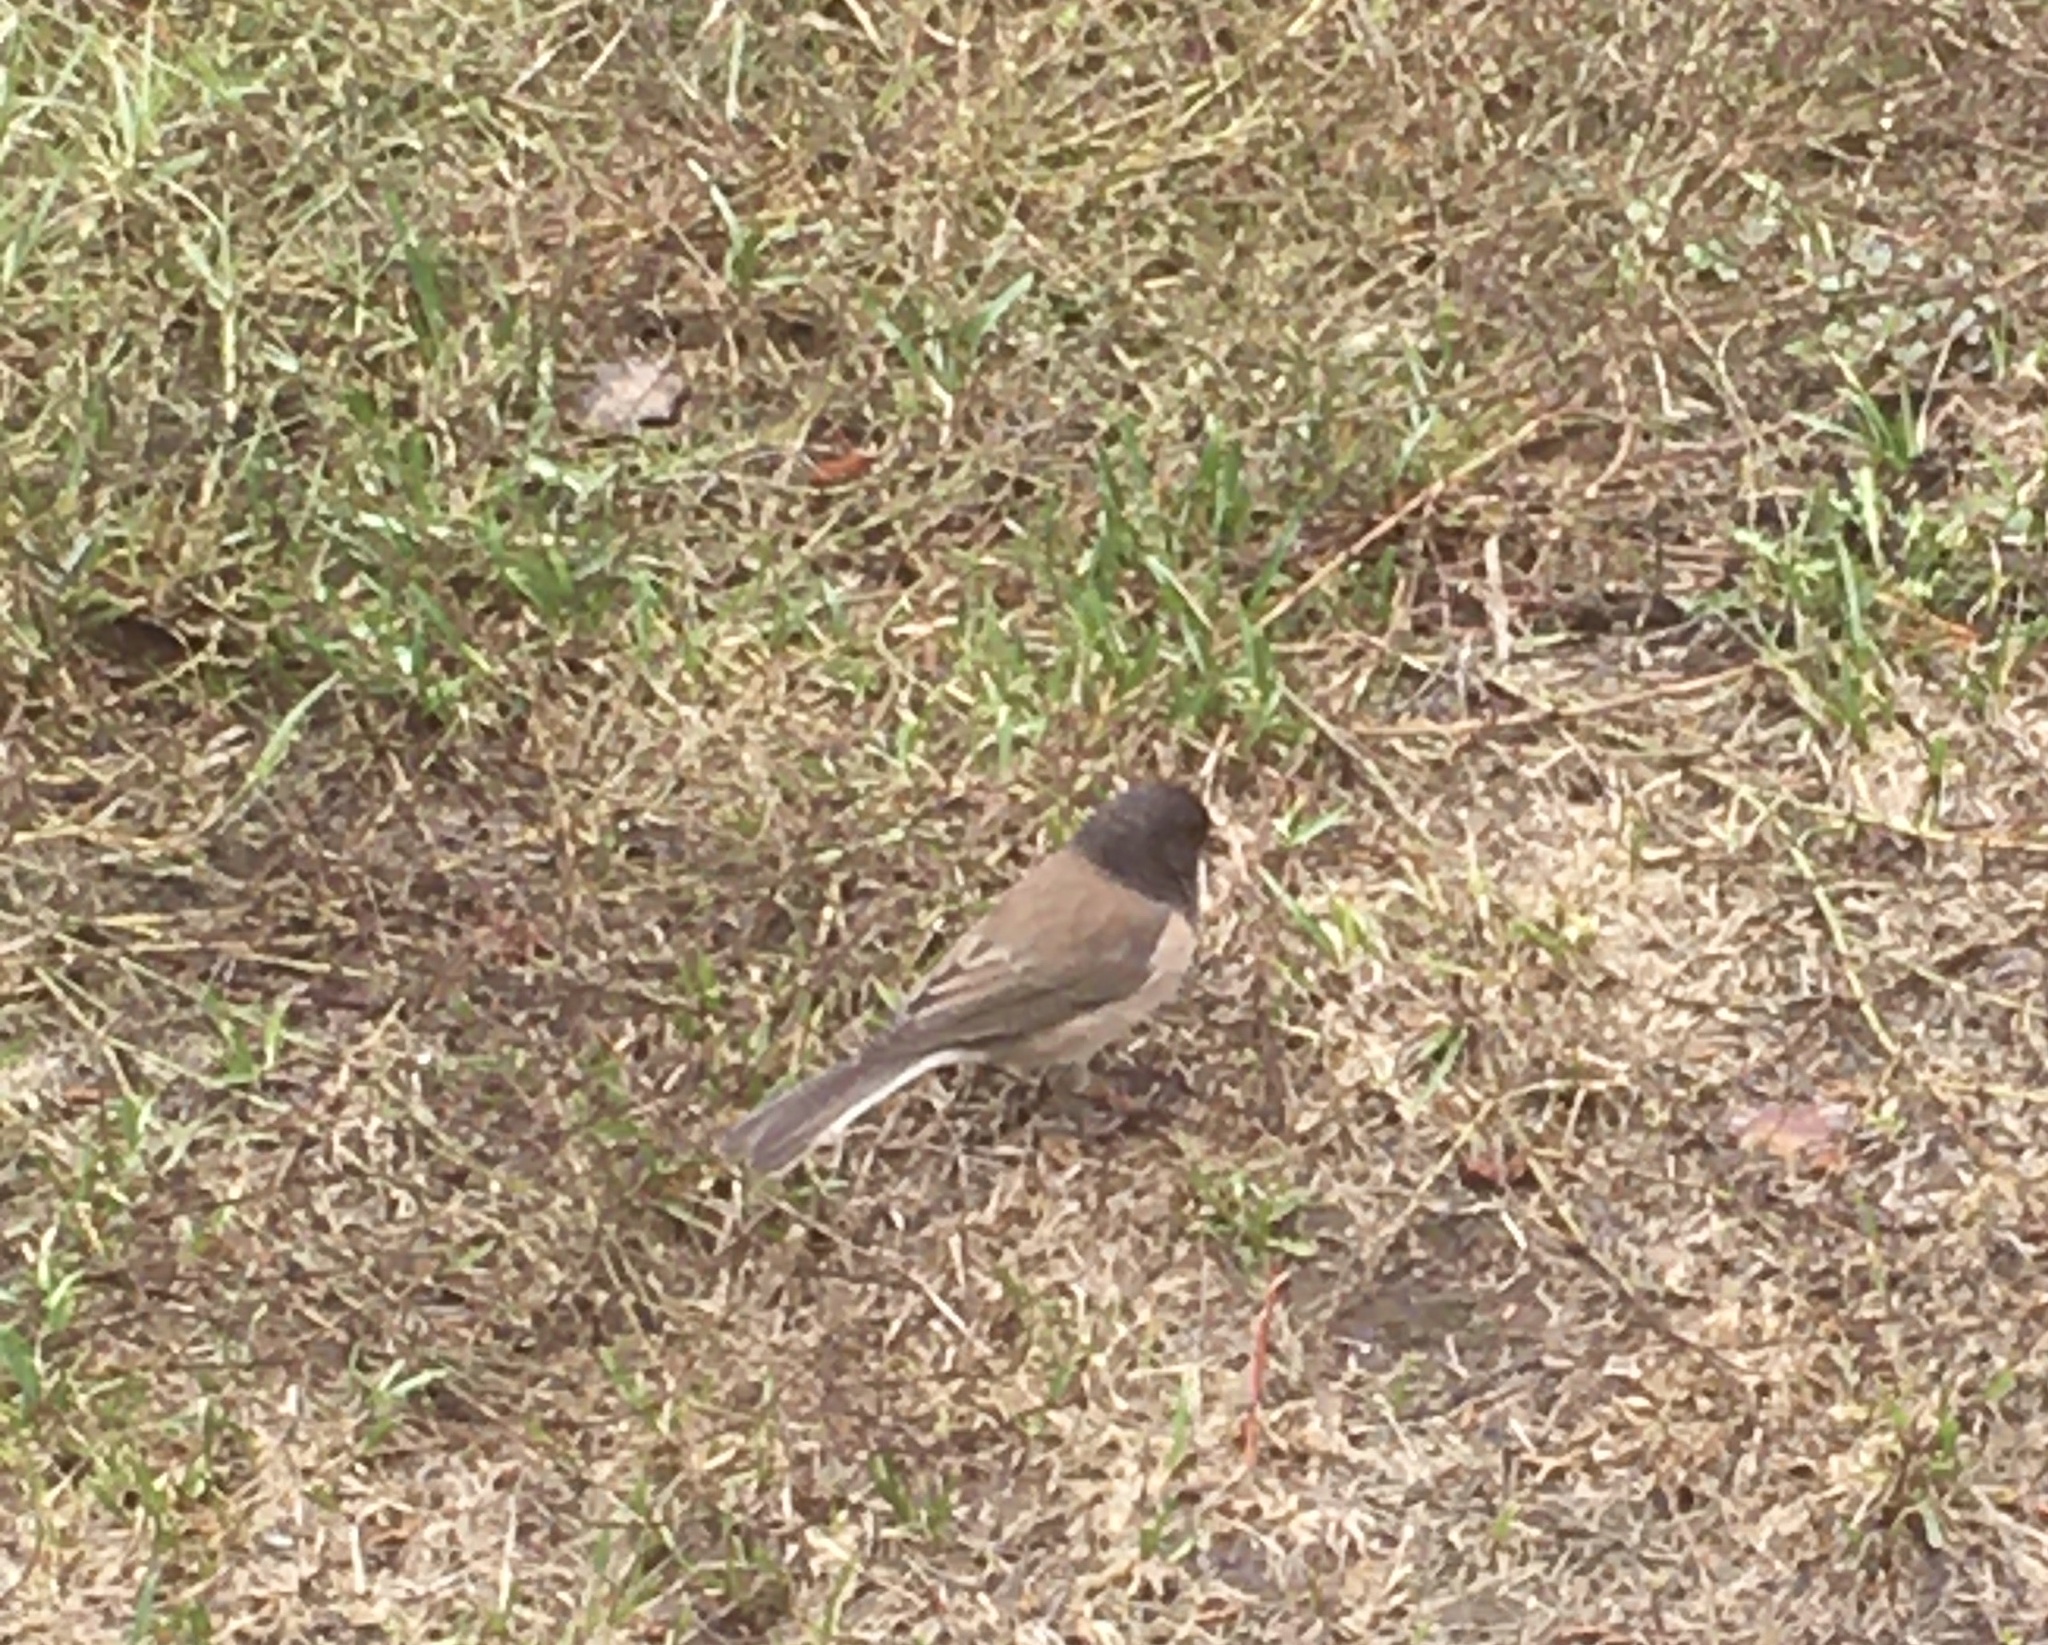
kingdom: Animalia
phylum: Chordata
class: Aves
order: Passeriformes
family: Passerellidae
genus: Junco
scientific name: Junco hyemalis
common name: Dark-eyed junco
